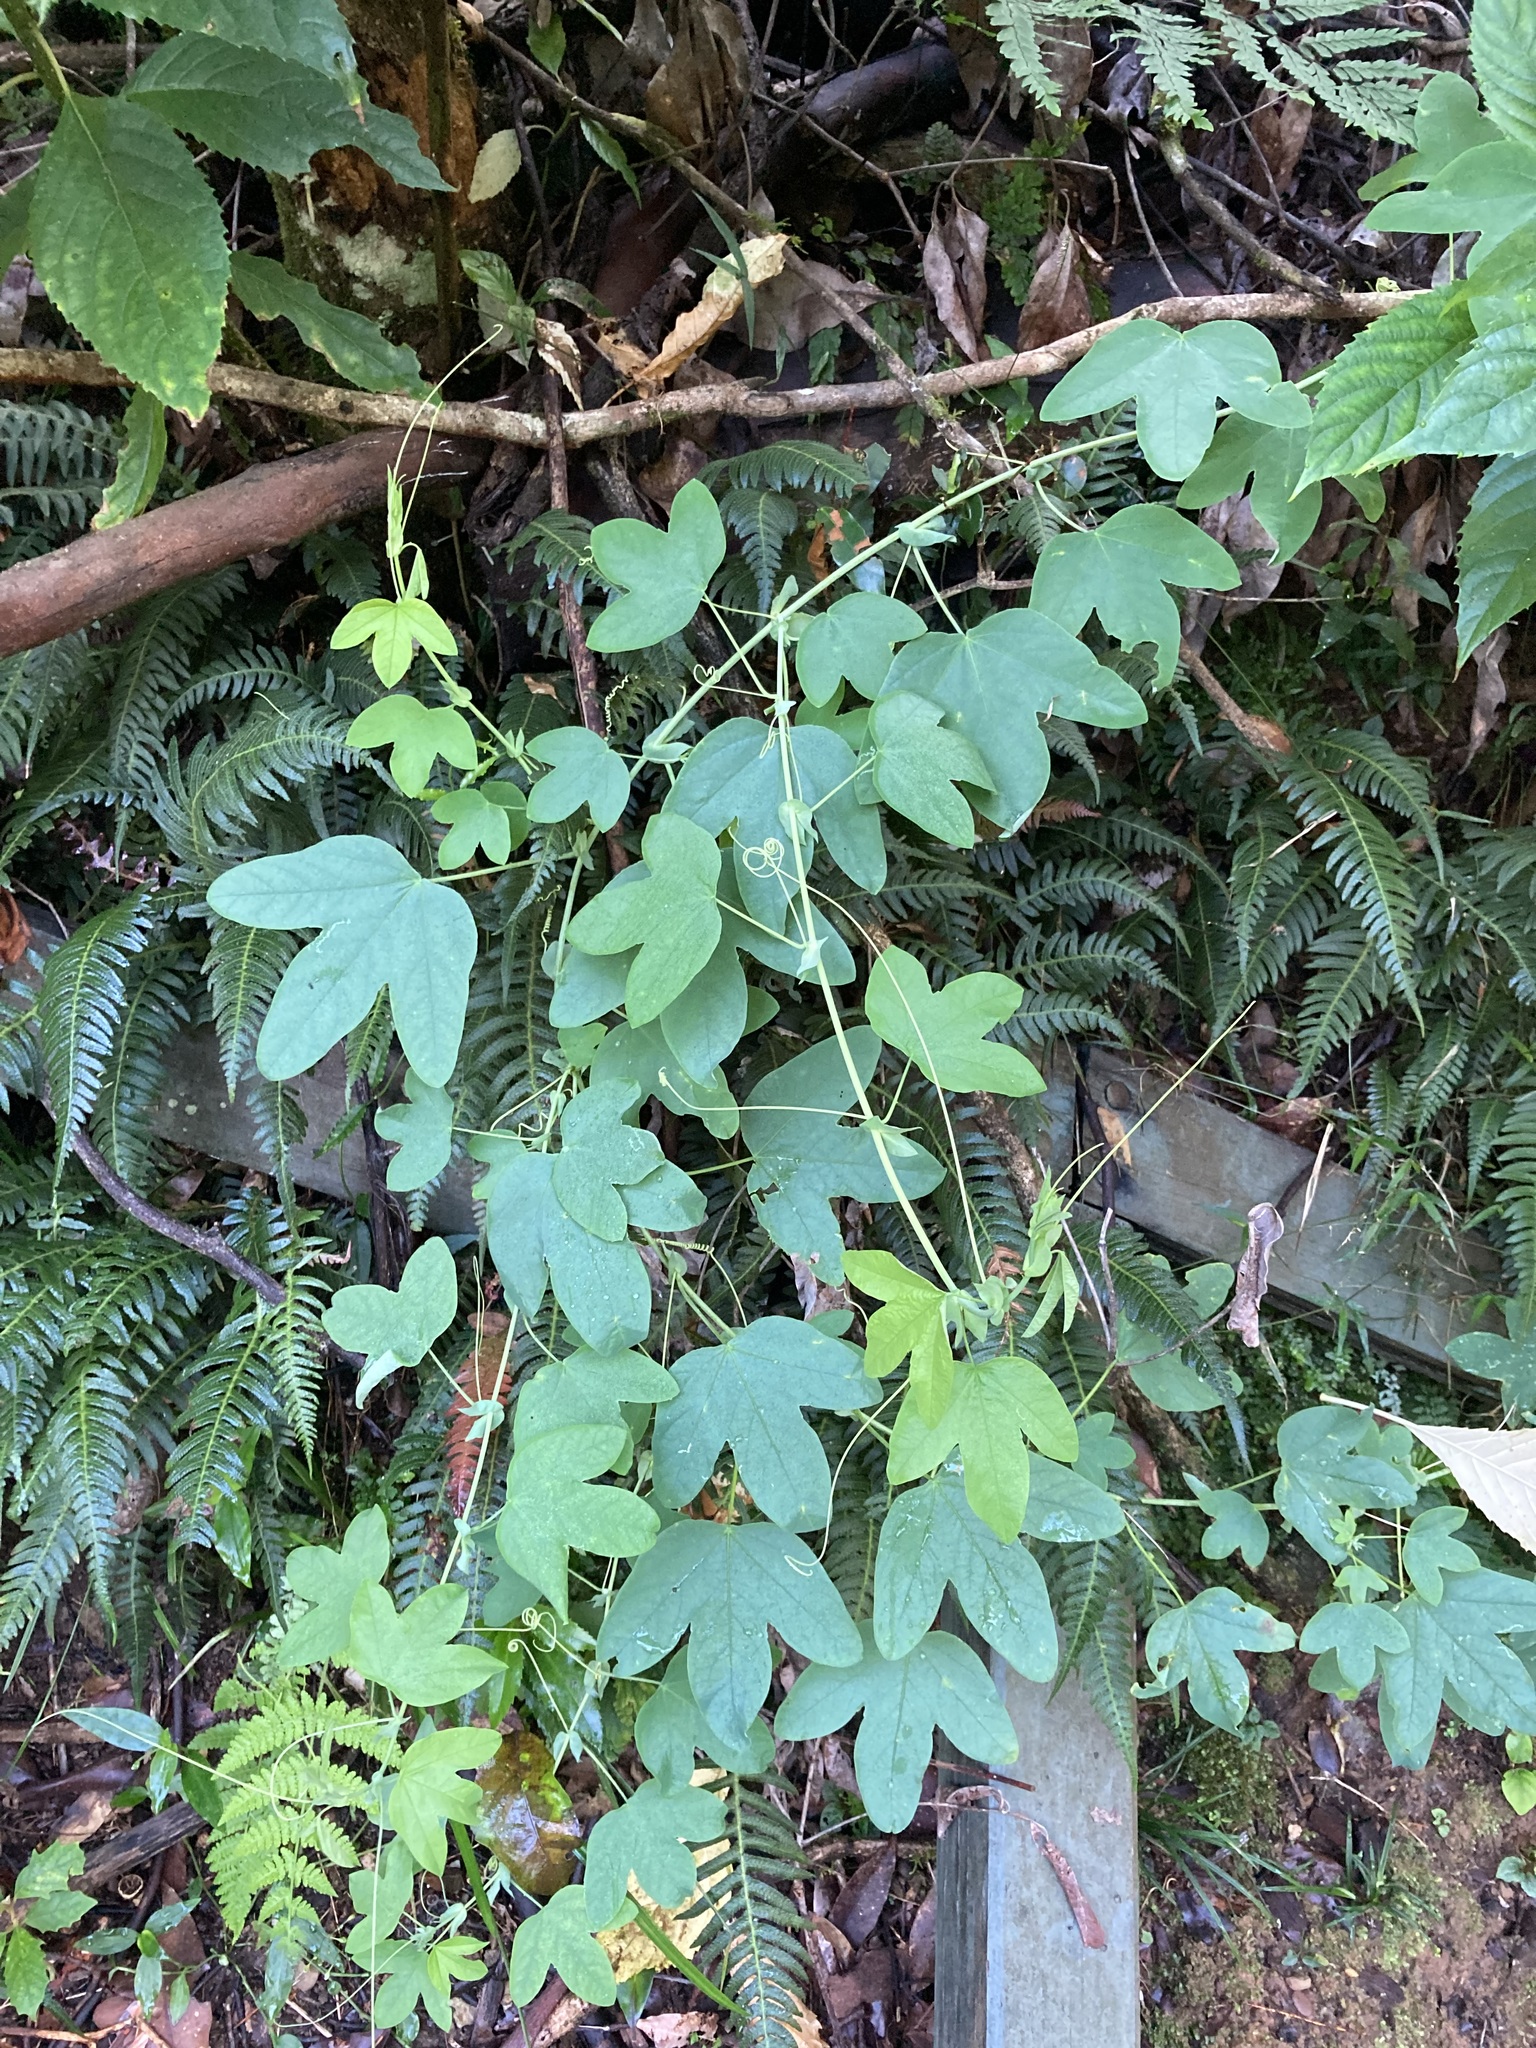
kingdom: Plantae
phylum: Tracheophyta
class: Magnoliopsida
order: Malpighiales
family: Passifloraceae
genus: Passiflora
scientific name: Passiflora subpeltata
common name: White passionflower
